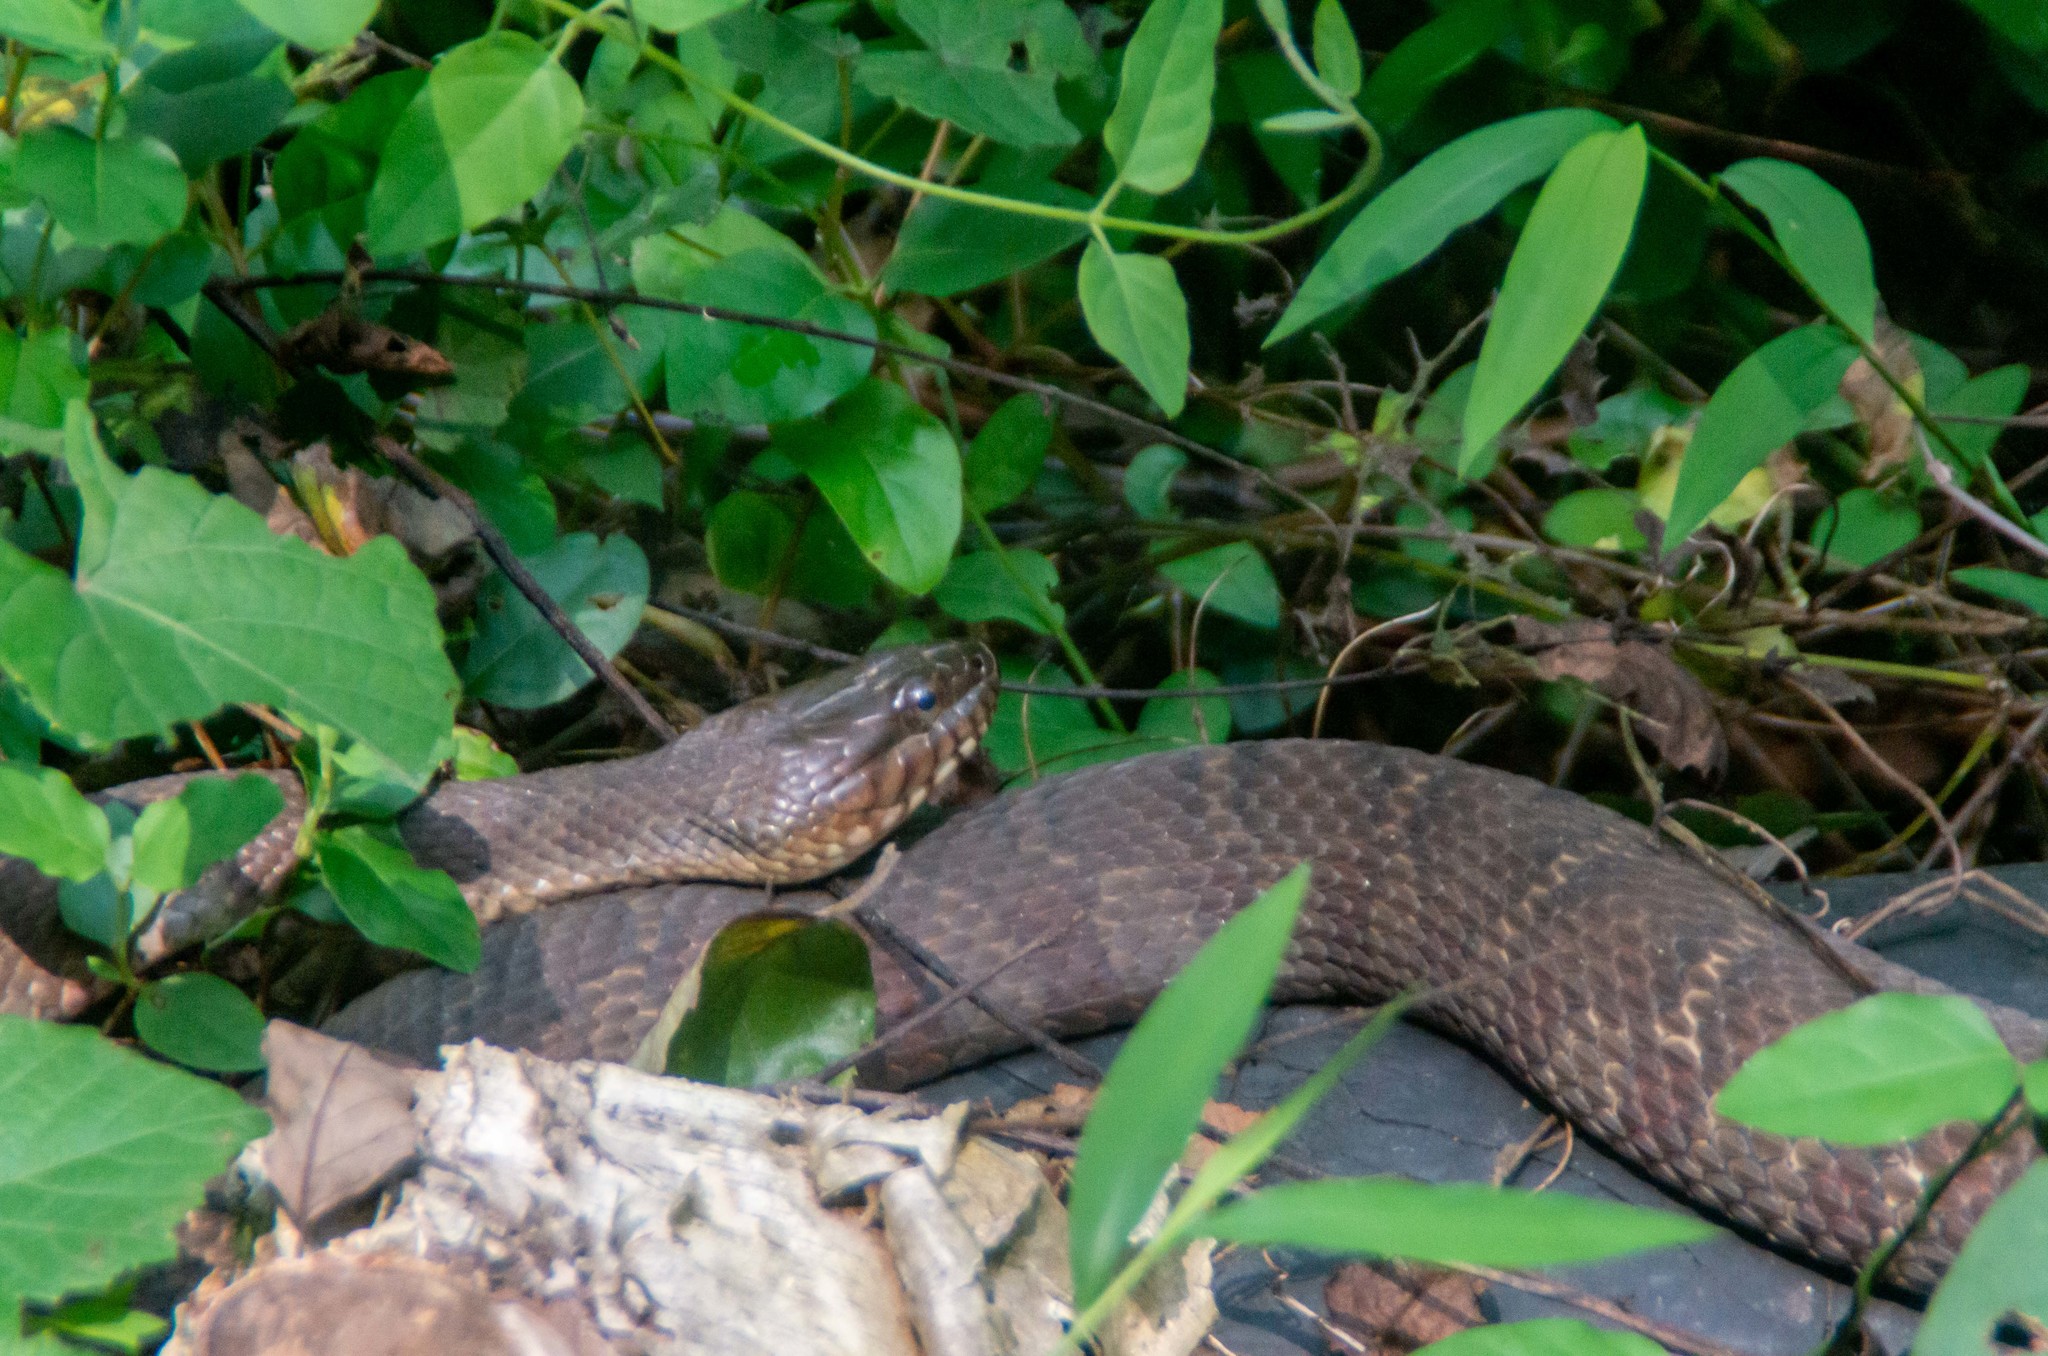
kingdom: Animalia
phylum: Chordata
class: Squamata
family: Colubridae
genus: Nerodia
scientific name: Nerodia sipedon
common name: Northern water snake
